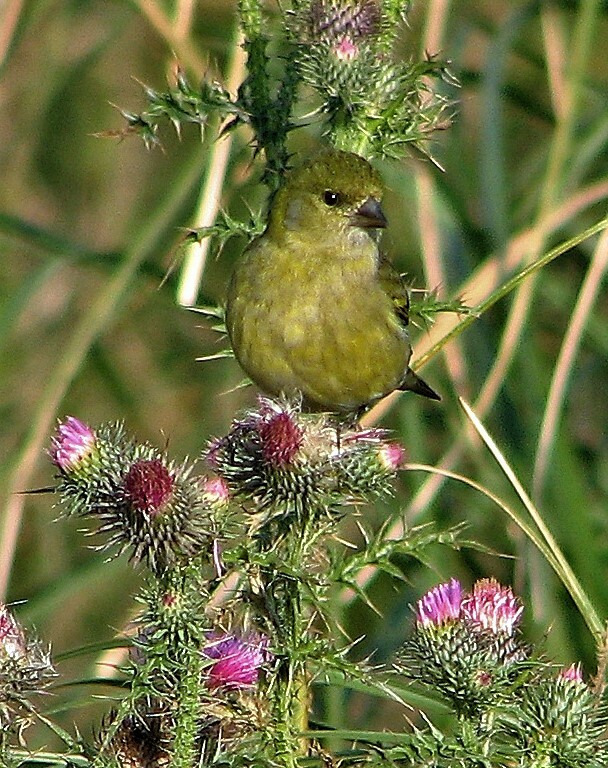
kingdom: Animalia
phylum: Chordata
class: Aves
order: Passeriformes
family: Fringillidae
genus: Spinus
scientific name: Spinus magellanicus
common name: Hooded siskin
